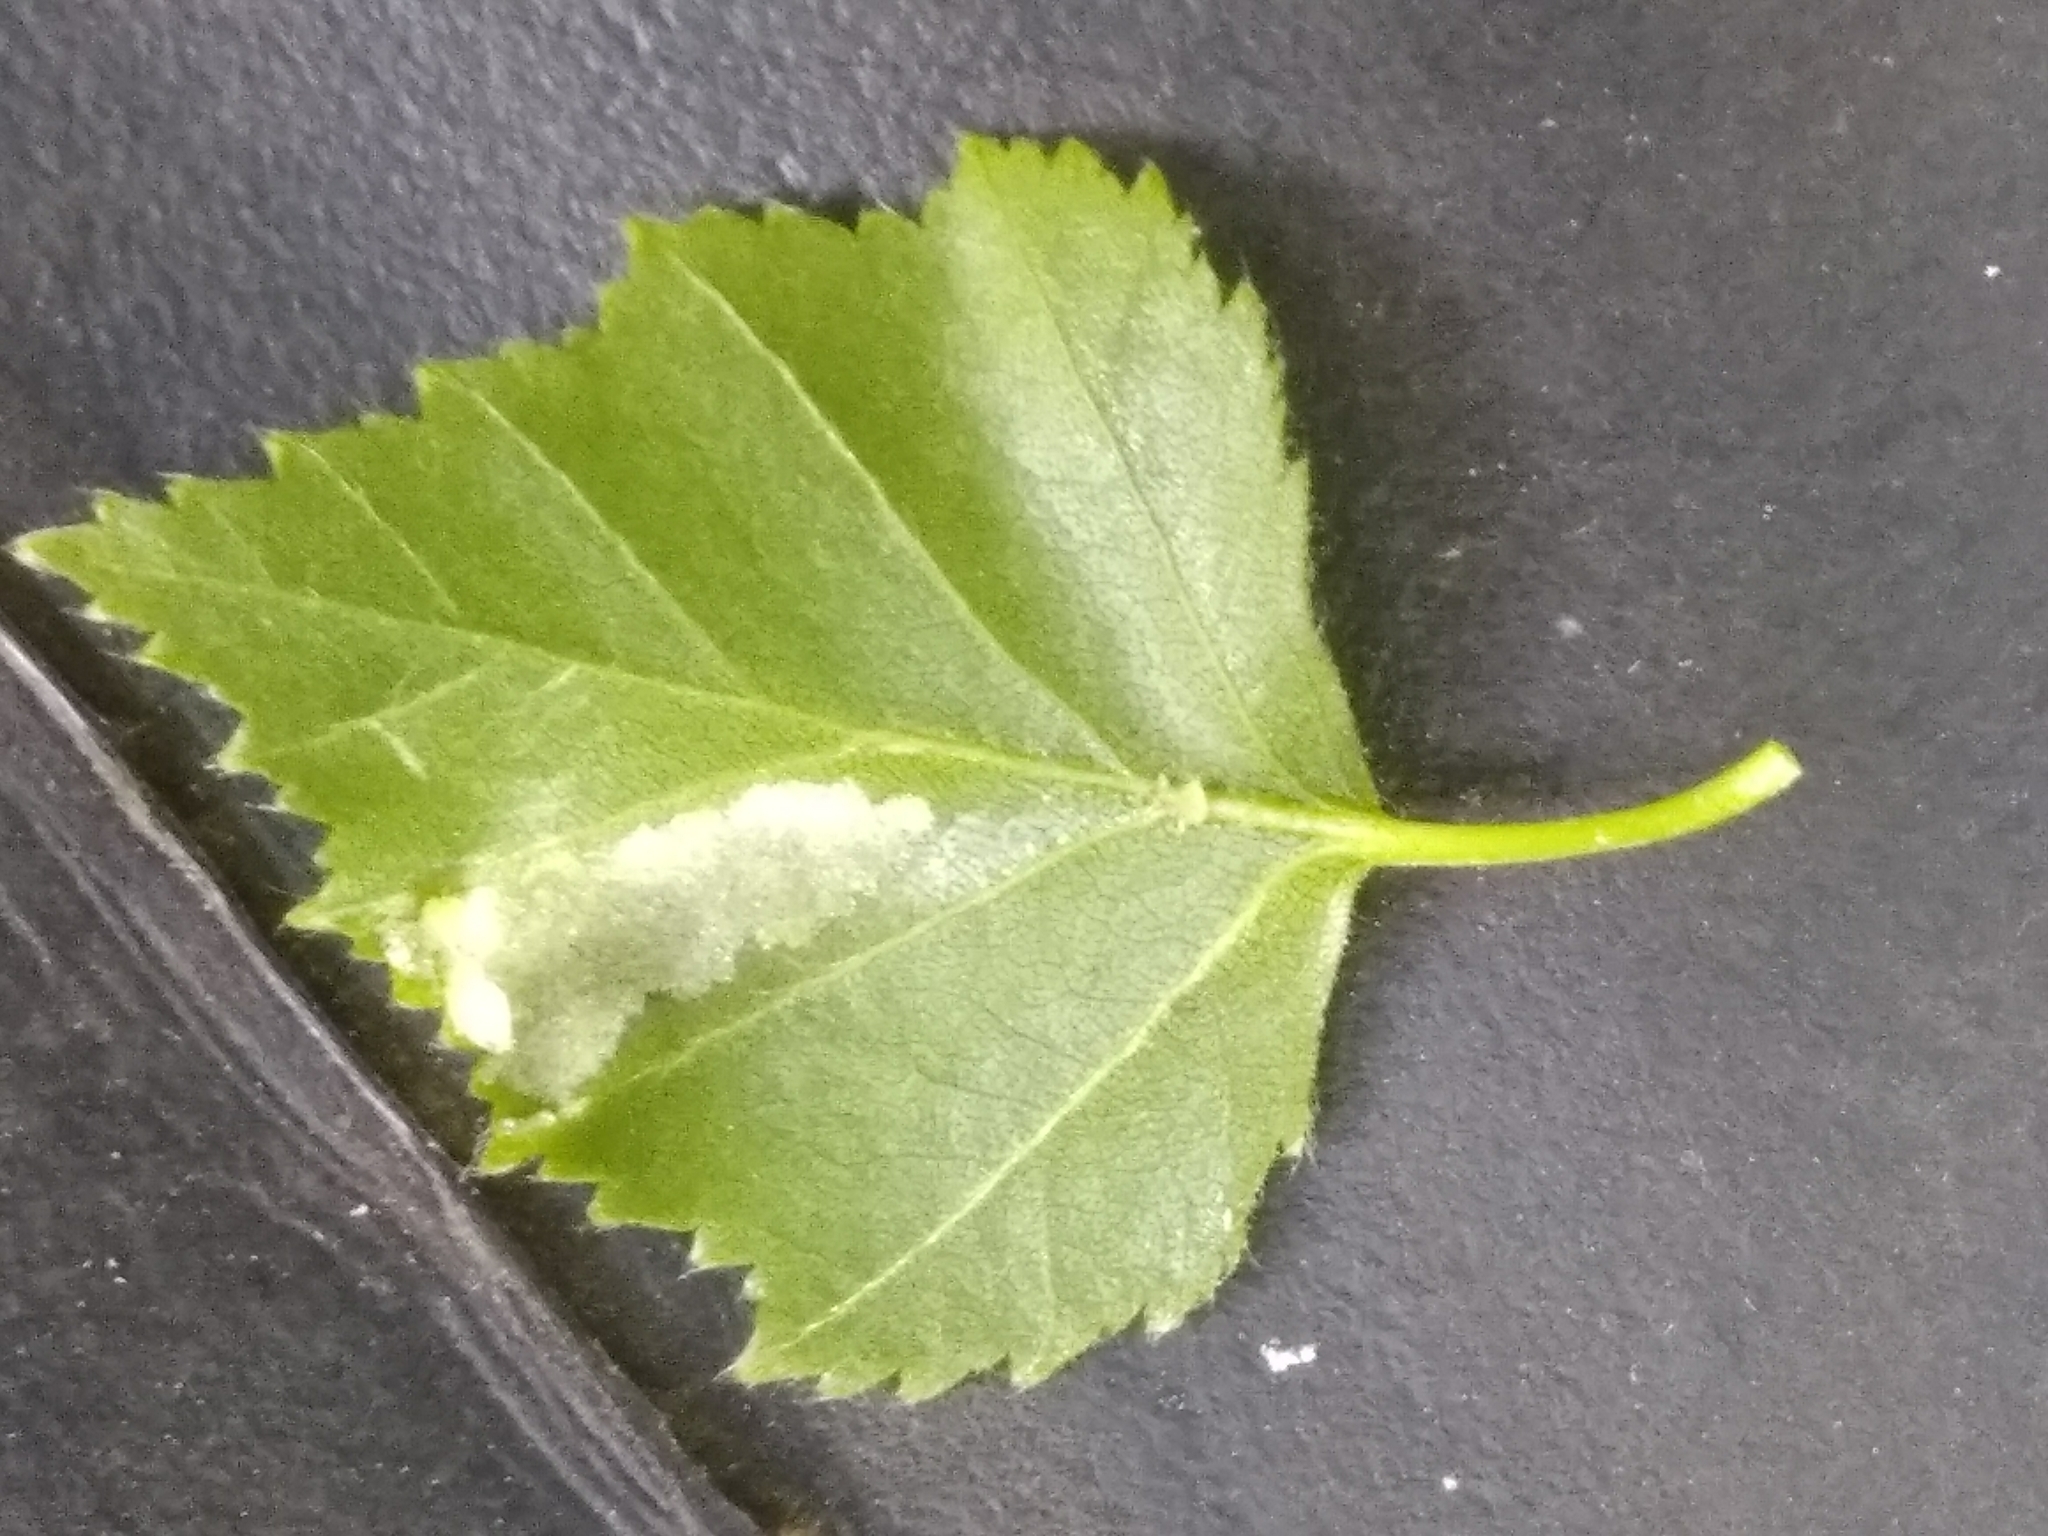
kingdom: Animalia
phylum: Arthropoda
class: Arachnida
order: Trombidiformes
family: Eriophyidae
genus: Acalitus
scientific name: Acalitus rudis
